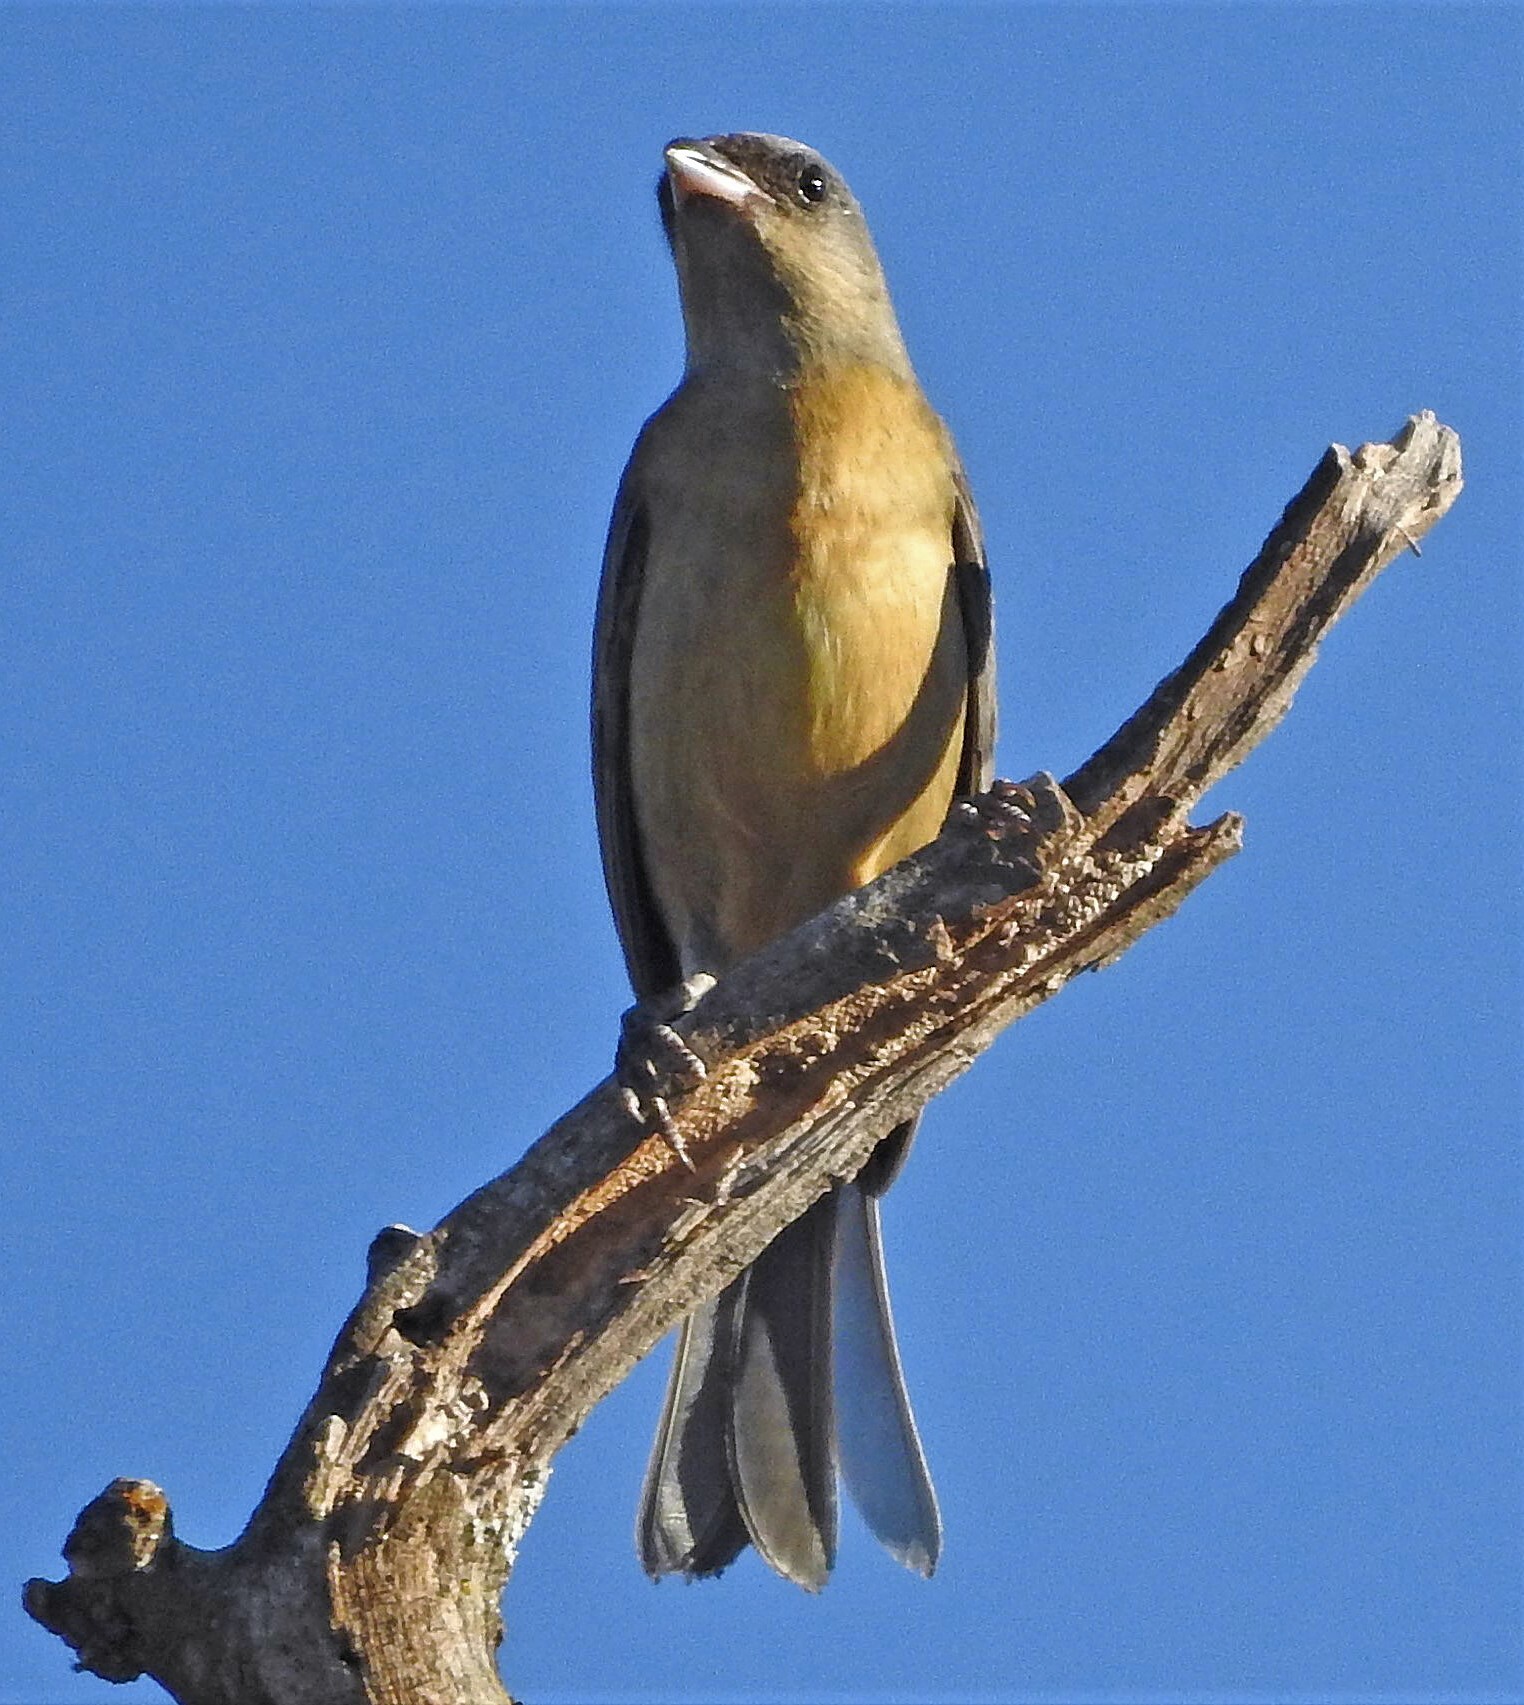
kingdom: Animalia
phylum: Chordata
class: Aves
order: Passeriformes
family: Thraupidae
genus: Rauenia
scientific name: Rauenia bonariensis
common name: Blue-and-yellow tanager
